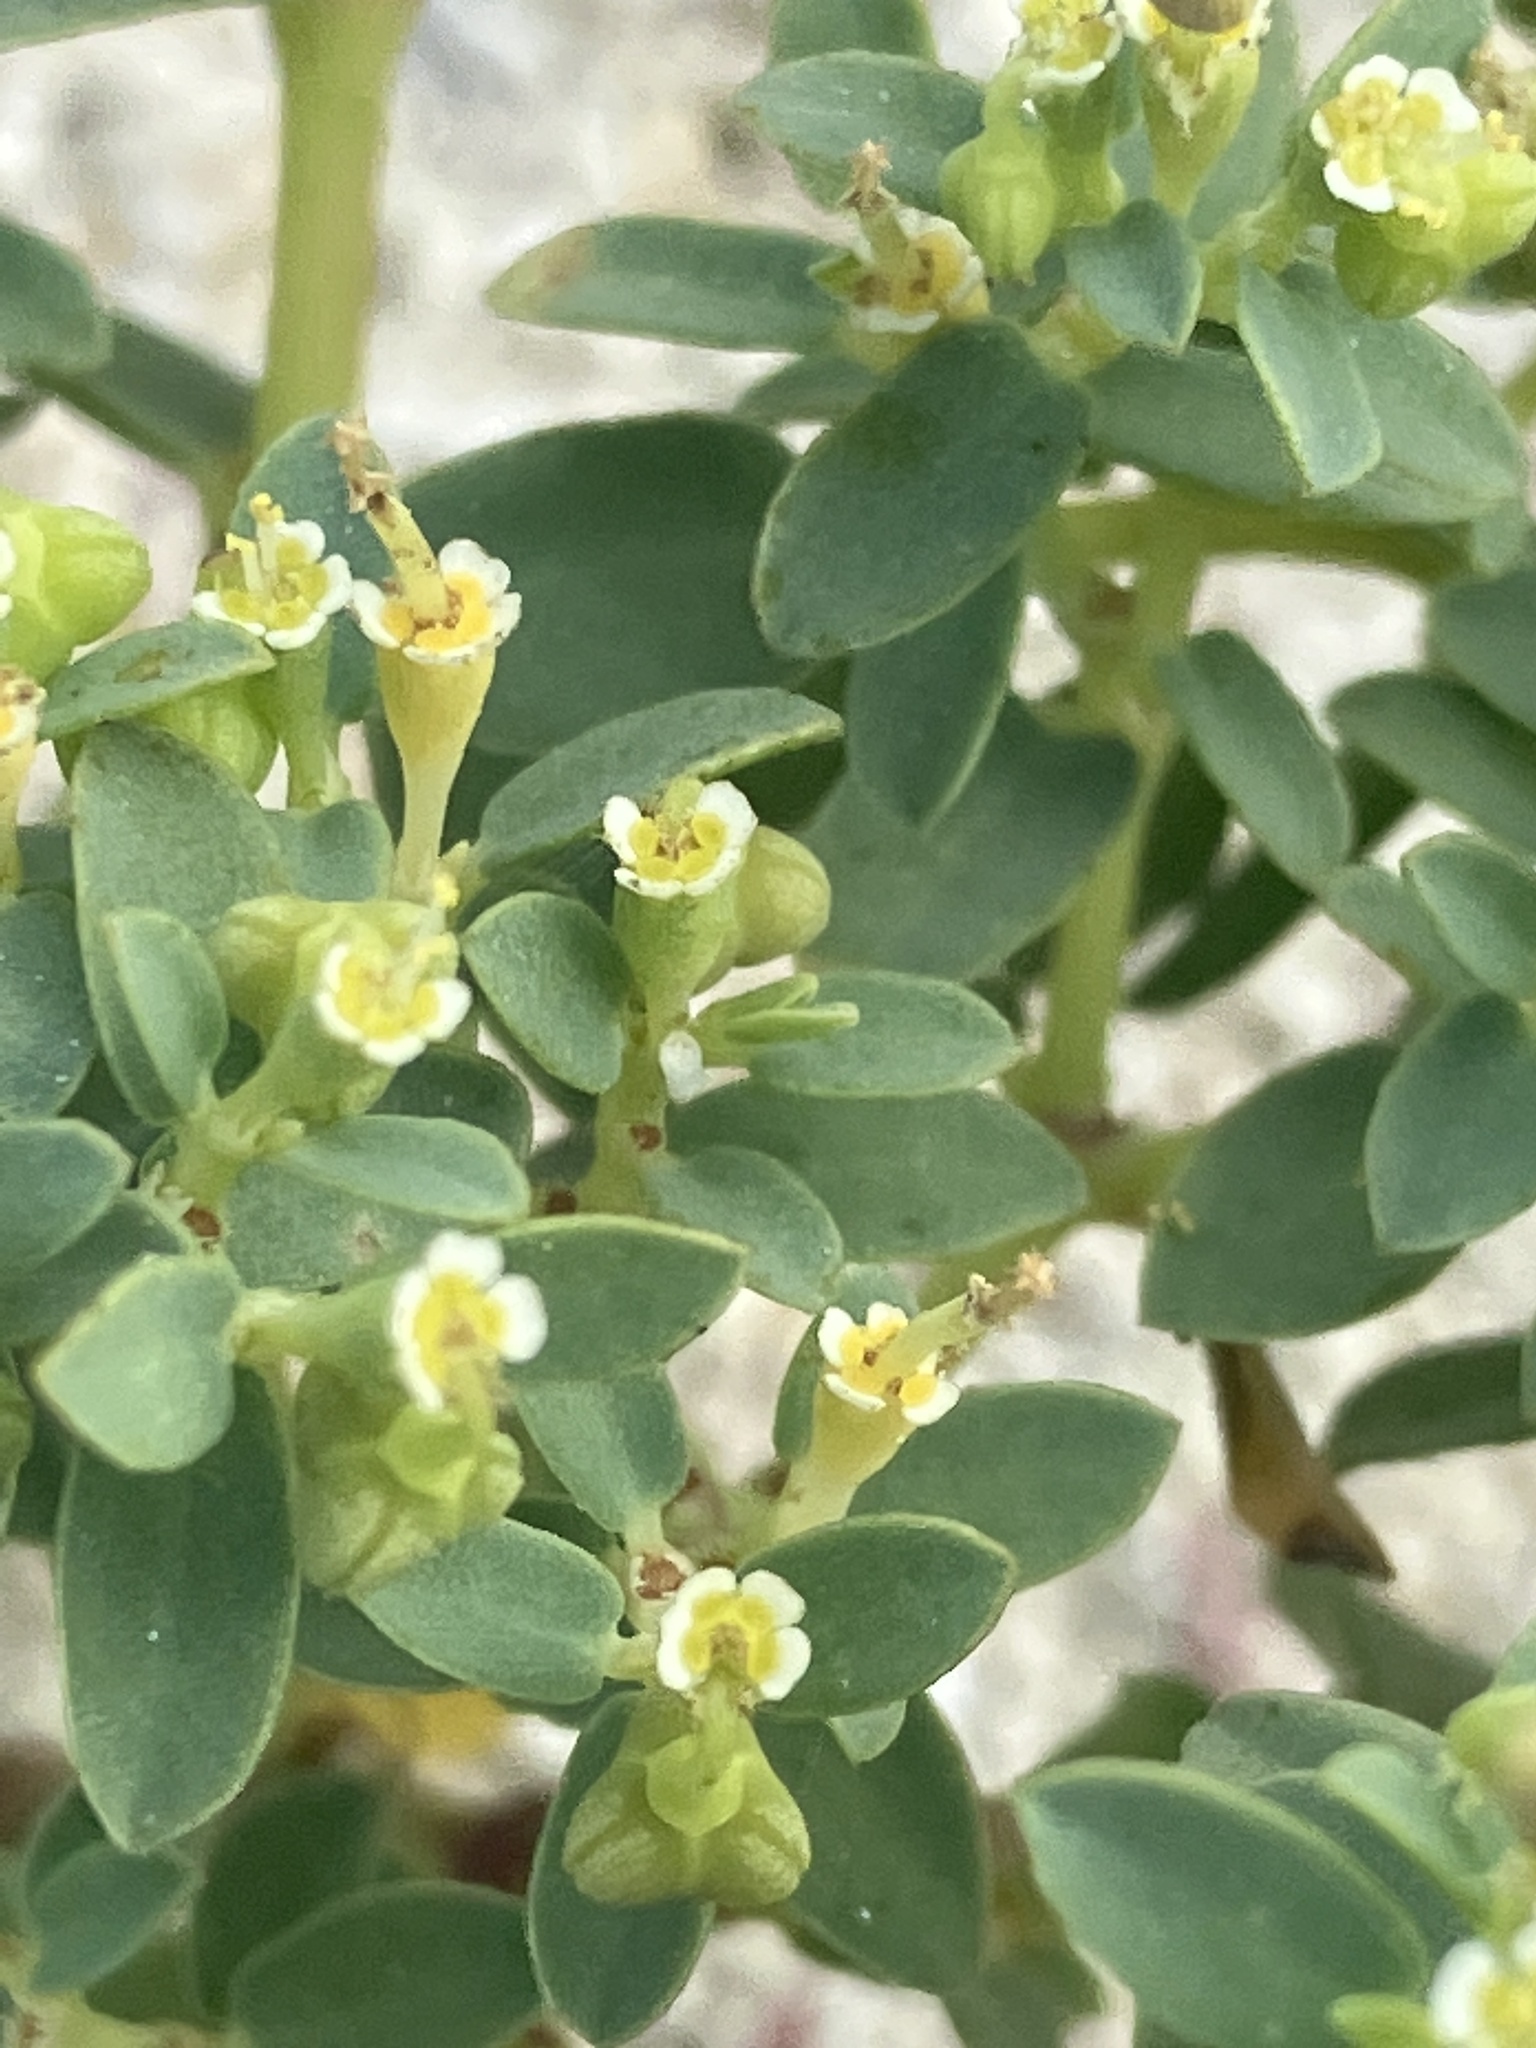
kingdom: Plantae
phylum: Tracheophyta
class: Magnoliopsida
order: Malpighiales
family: Euphorbiaceae
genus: Euphorbia
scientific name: Euphorbia mesembryanthemifolia
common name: Coastal beach sandmat
